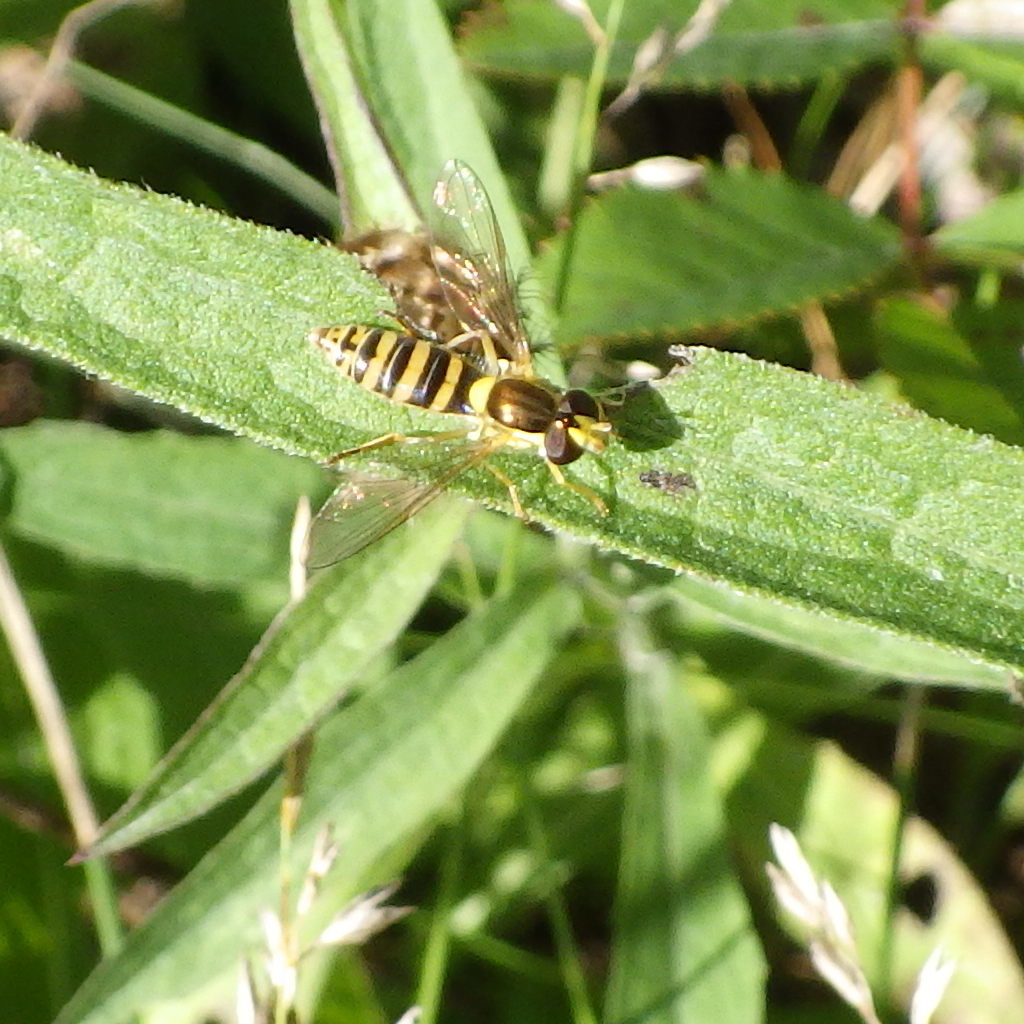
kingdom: Animalia
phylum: Arthropoda
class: Insecta
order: Diptera
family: Syrphidae
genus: Sphaerophoria
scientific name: Sphaerophoria
